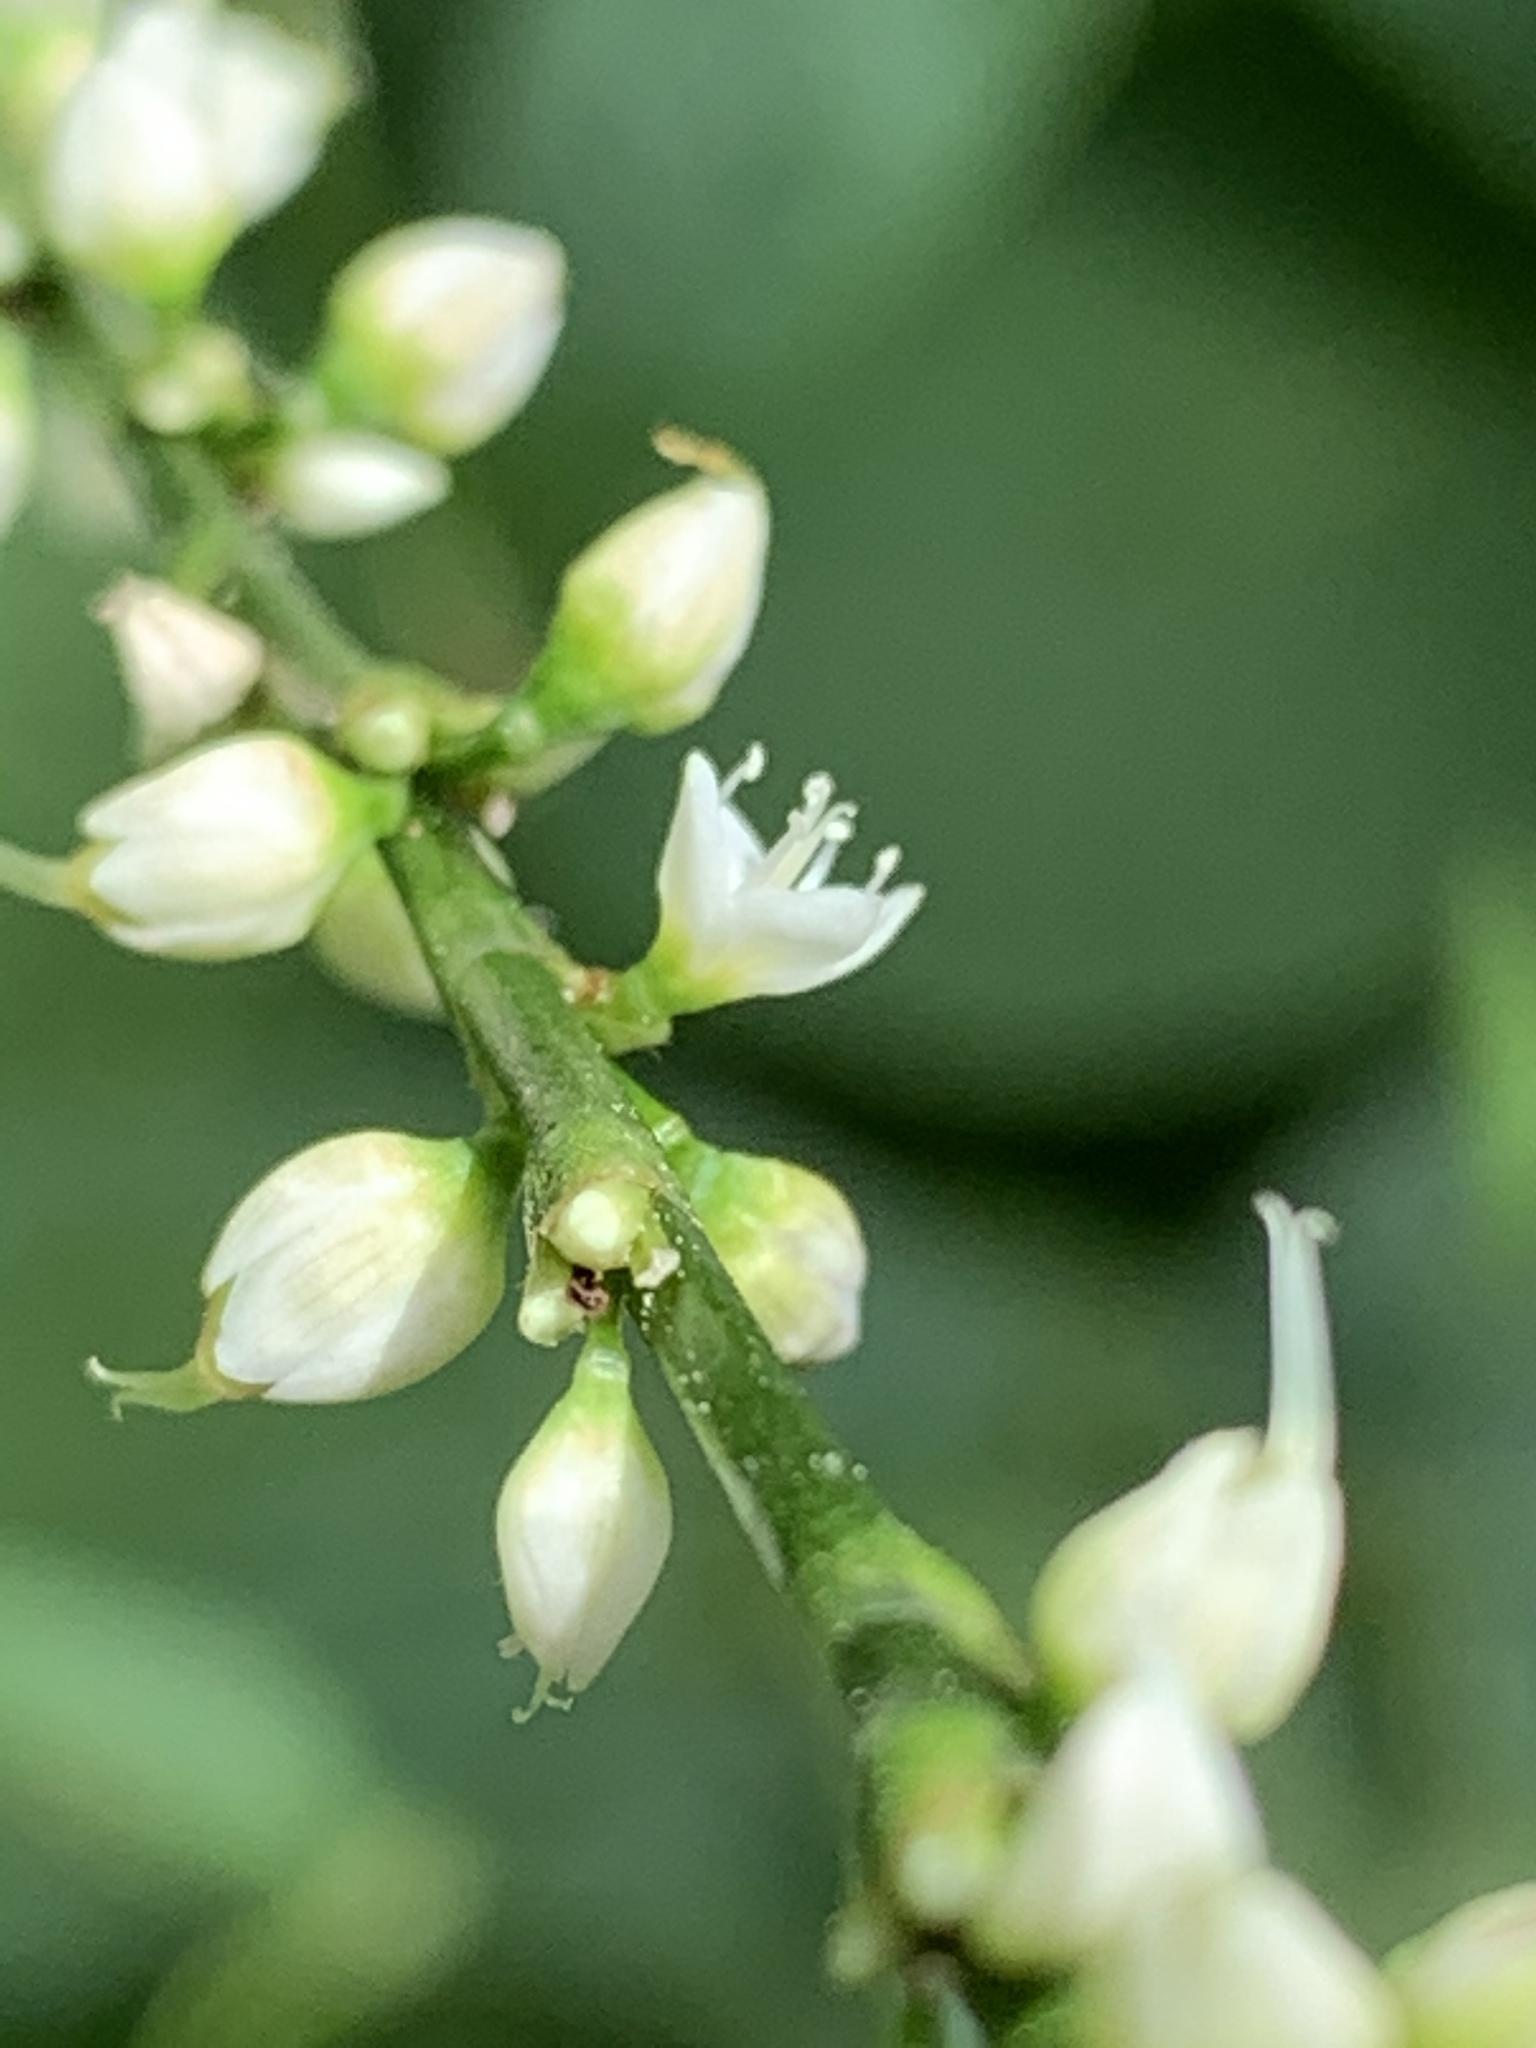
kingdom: Plantae
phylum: Tracheophyta
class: Magnoliopsida
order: Caryophyllales
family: Polygonaceae
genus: Persicaria
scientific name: Persicaria virginiana
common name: Jumpseed
